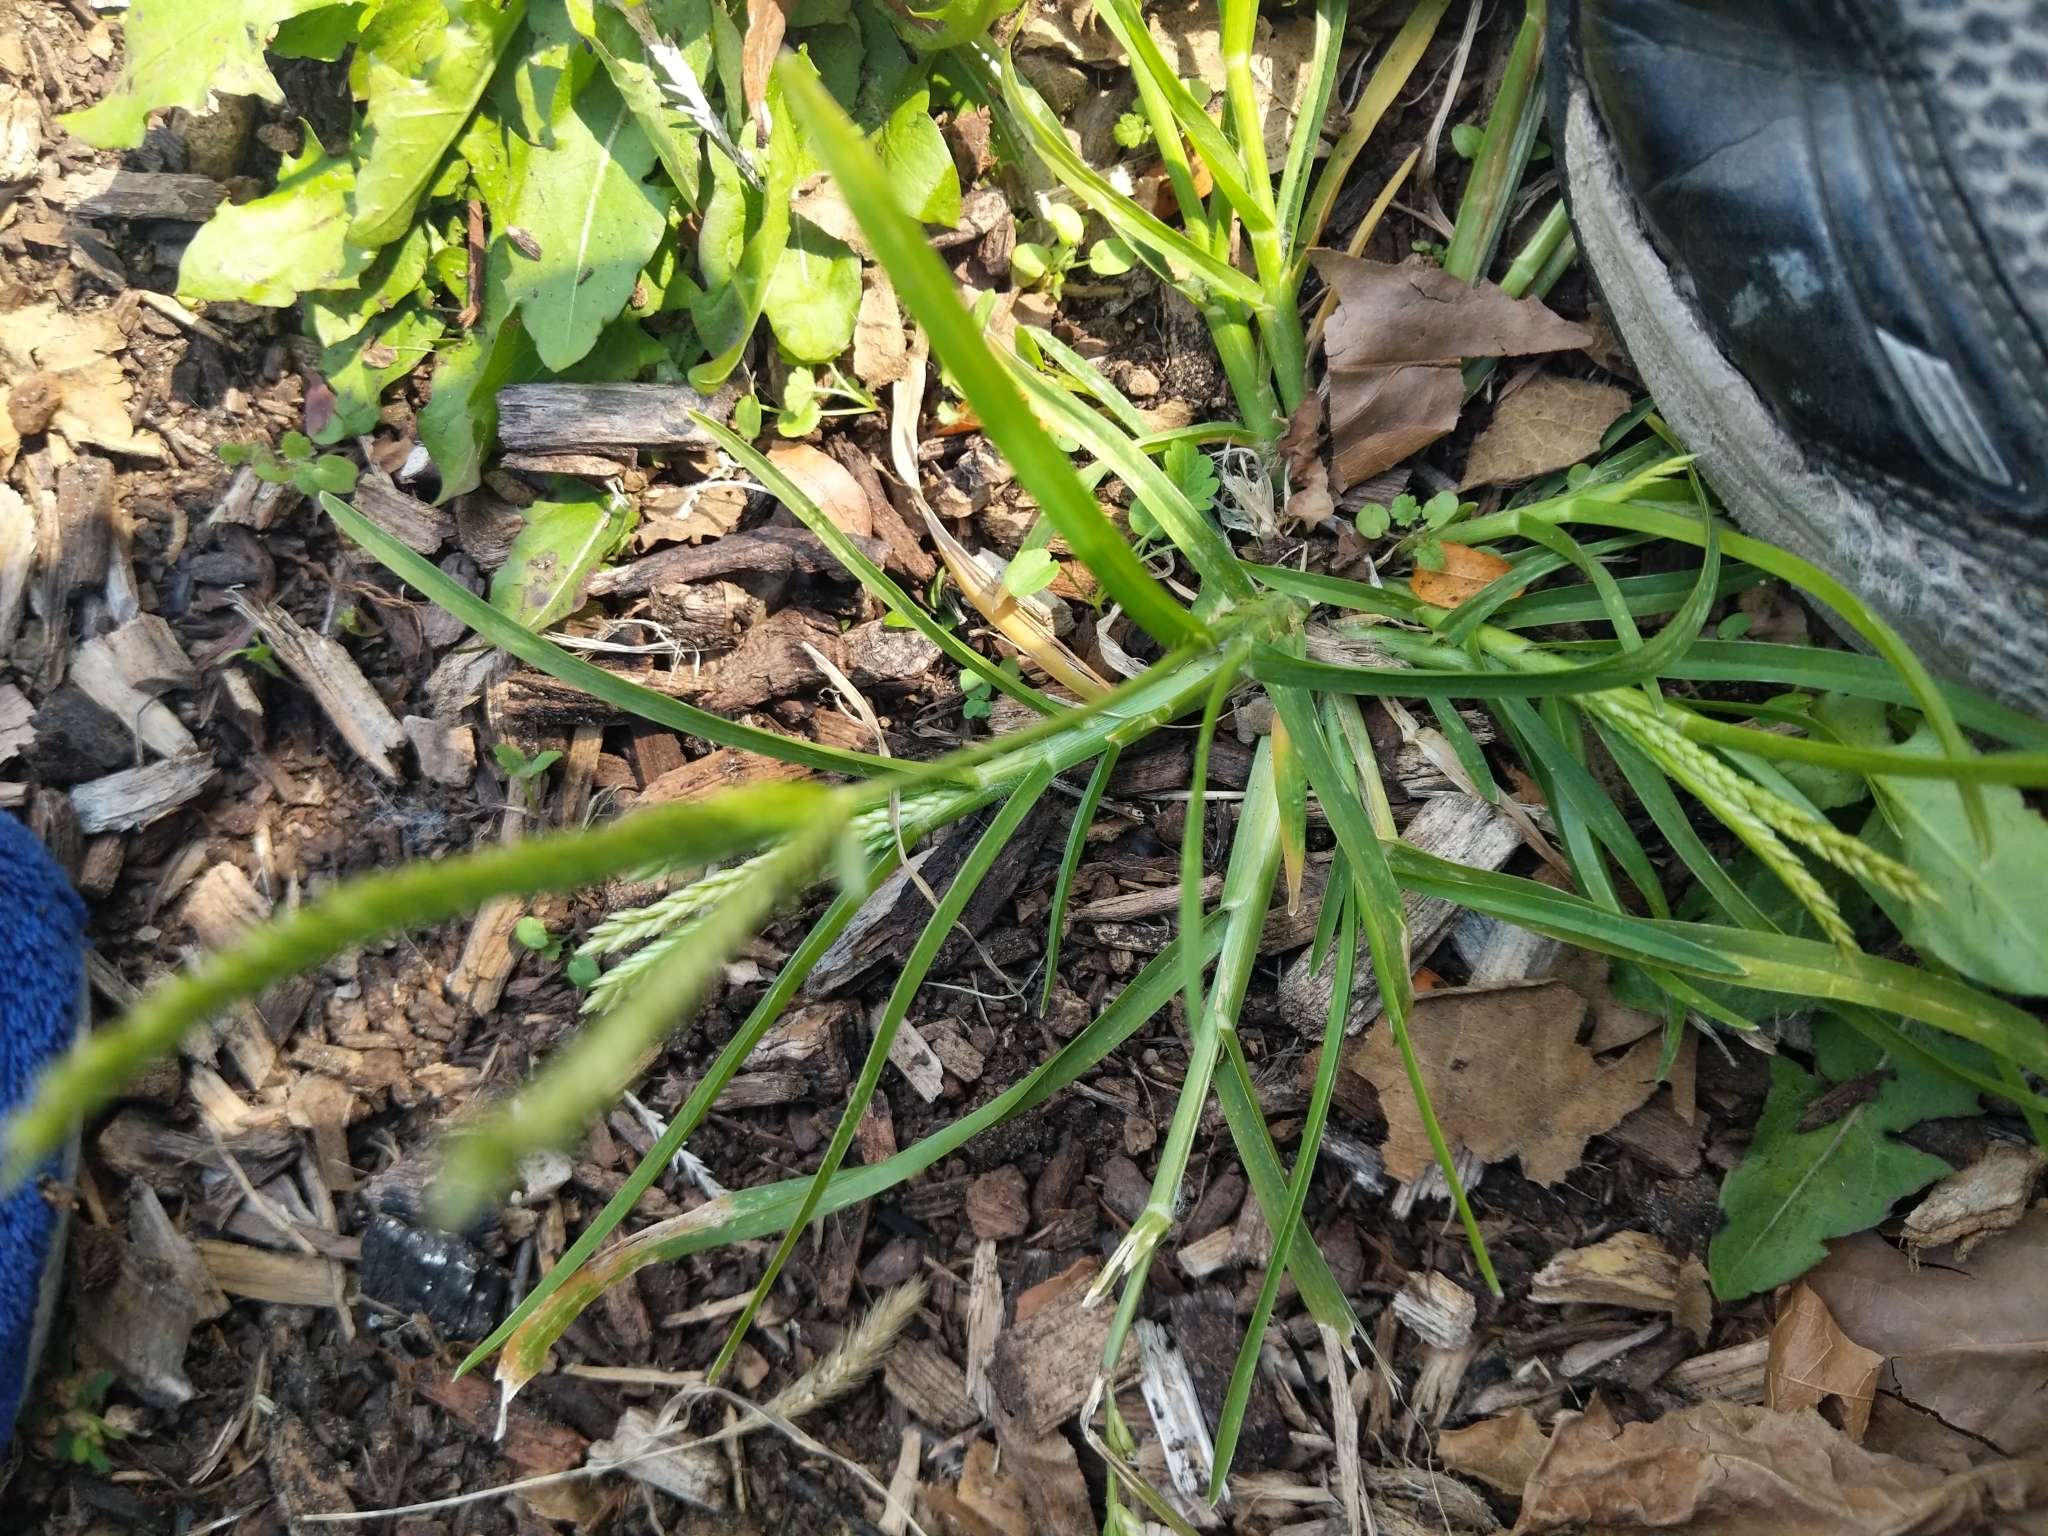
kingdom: Plantae
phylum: Tracheophyta
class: Liliopsida
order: Poales
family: Poaceae
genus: Eleusine
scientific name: Eleusine indica
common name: Yard-grass
